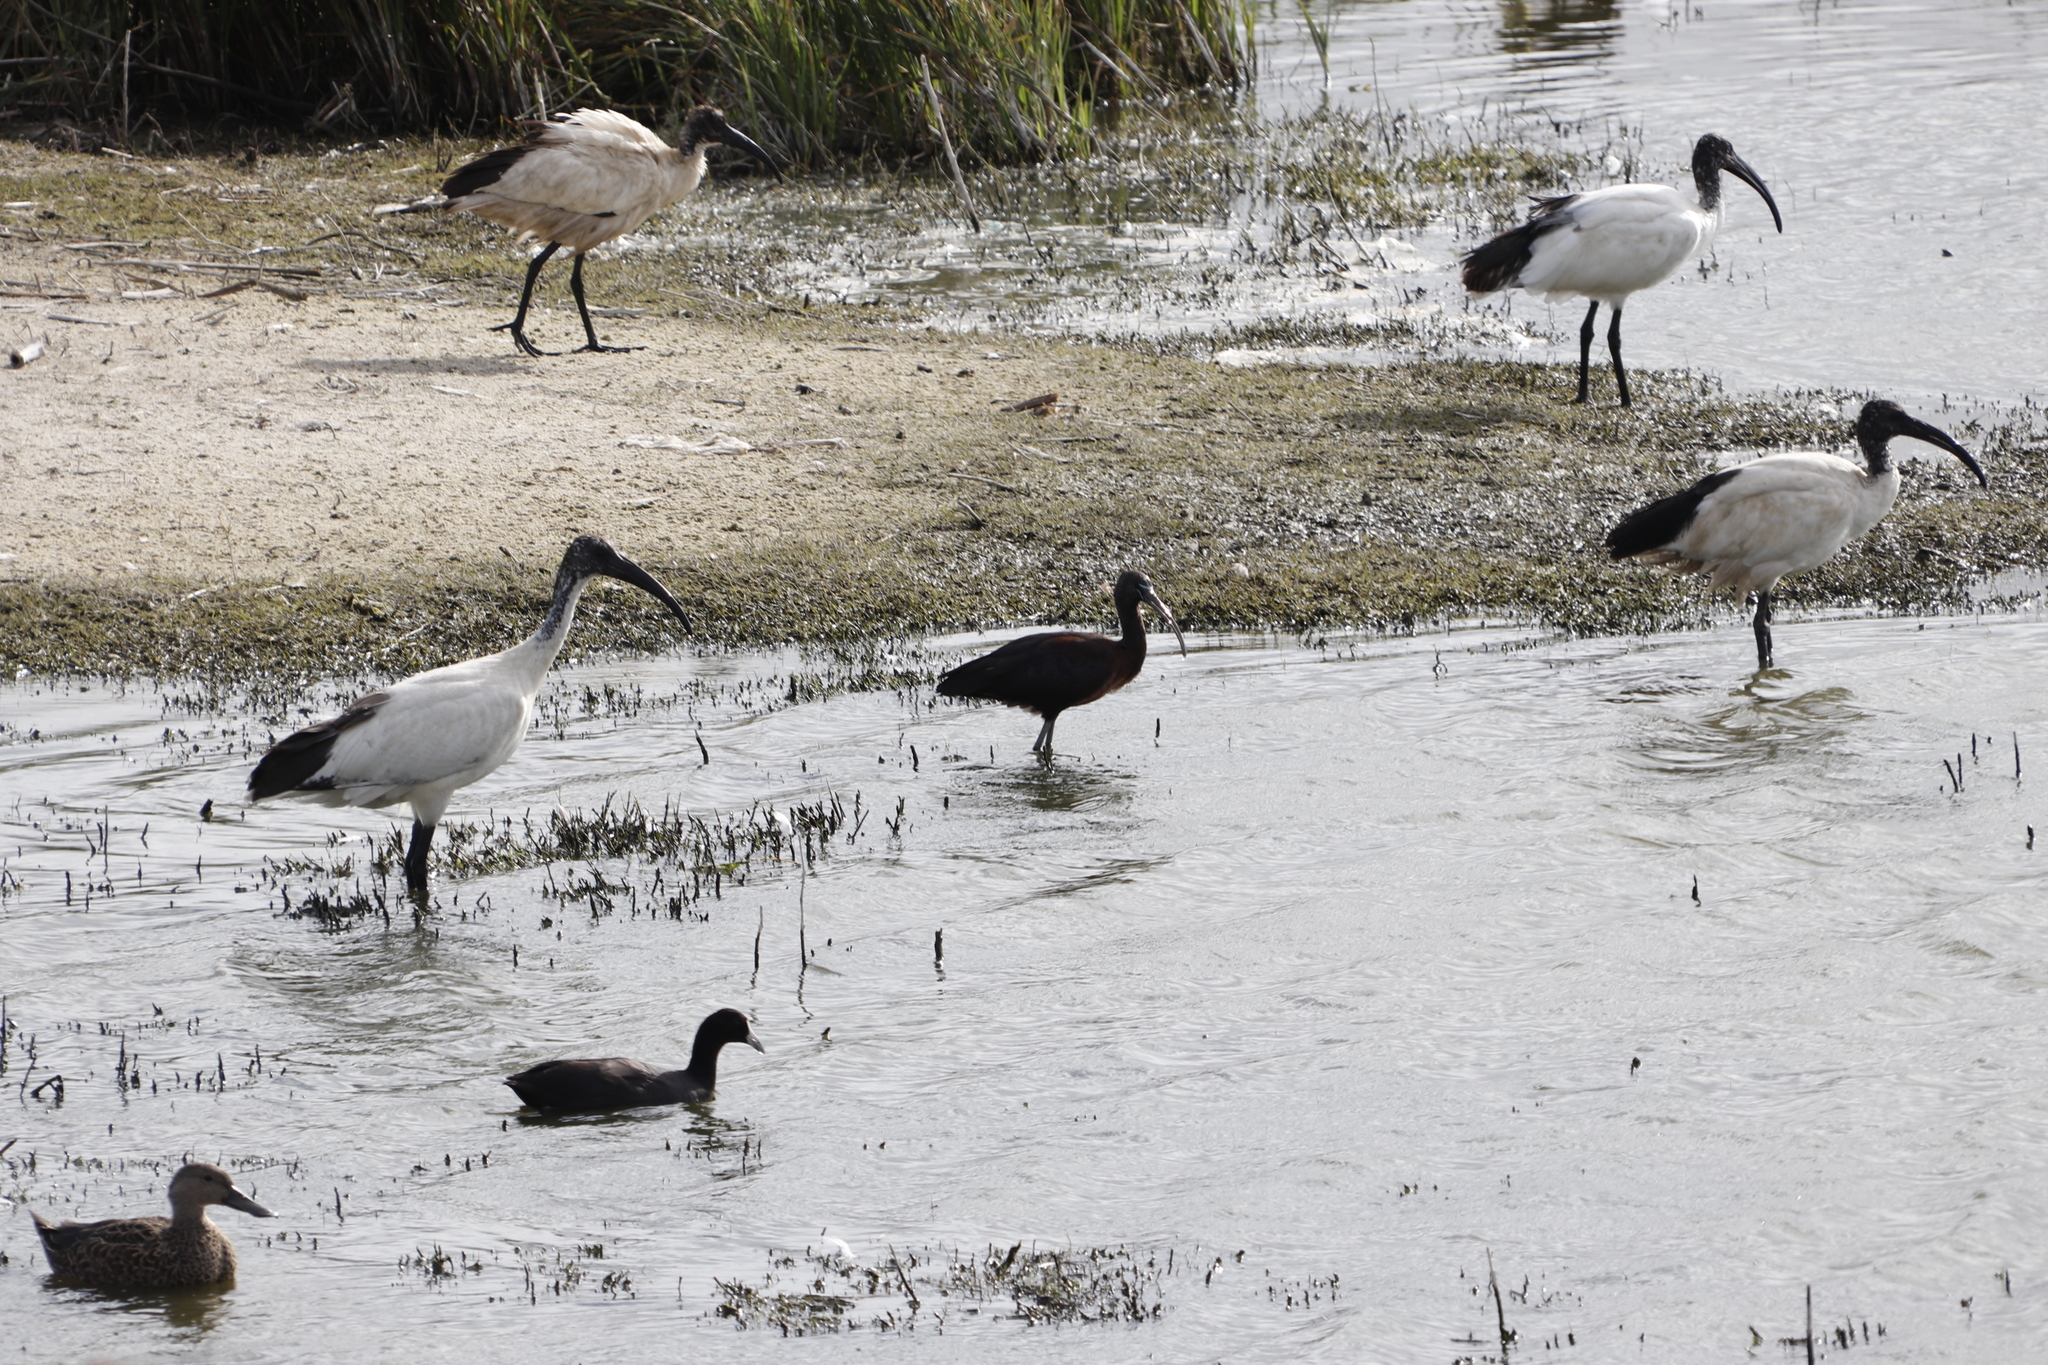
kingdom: Animalia
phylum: Chordata
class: Aves
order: Anseriformes
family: Anatidae
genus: Spatula
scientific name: Spatula smithii
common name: Cape shoveler
